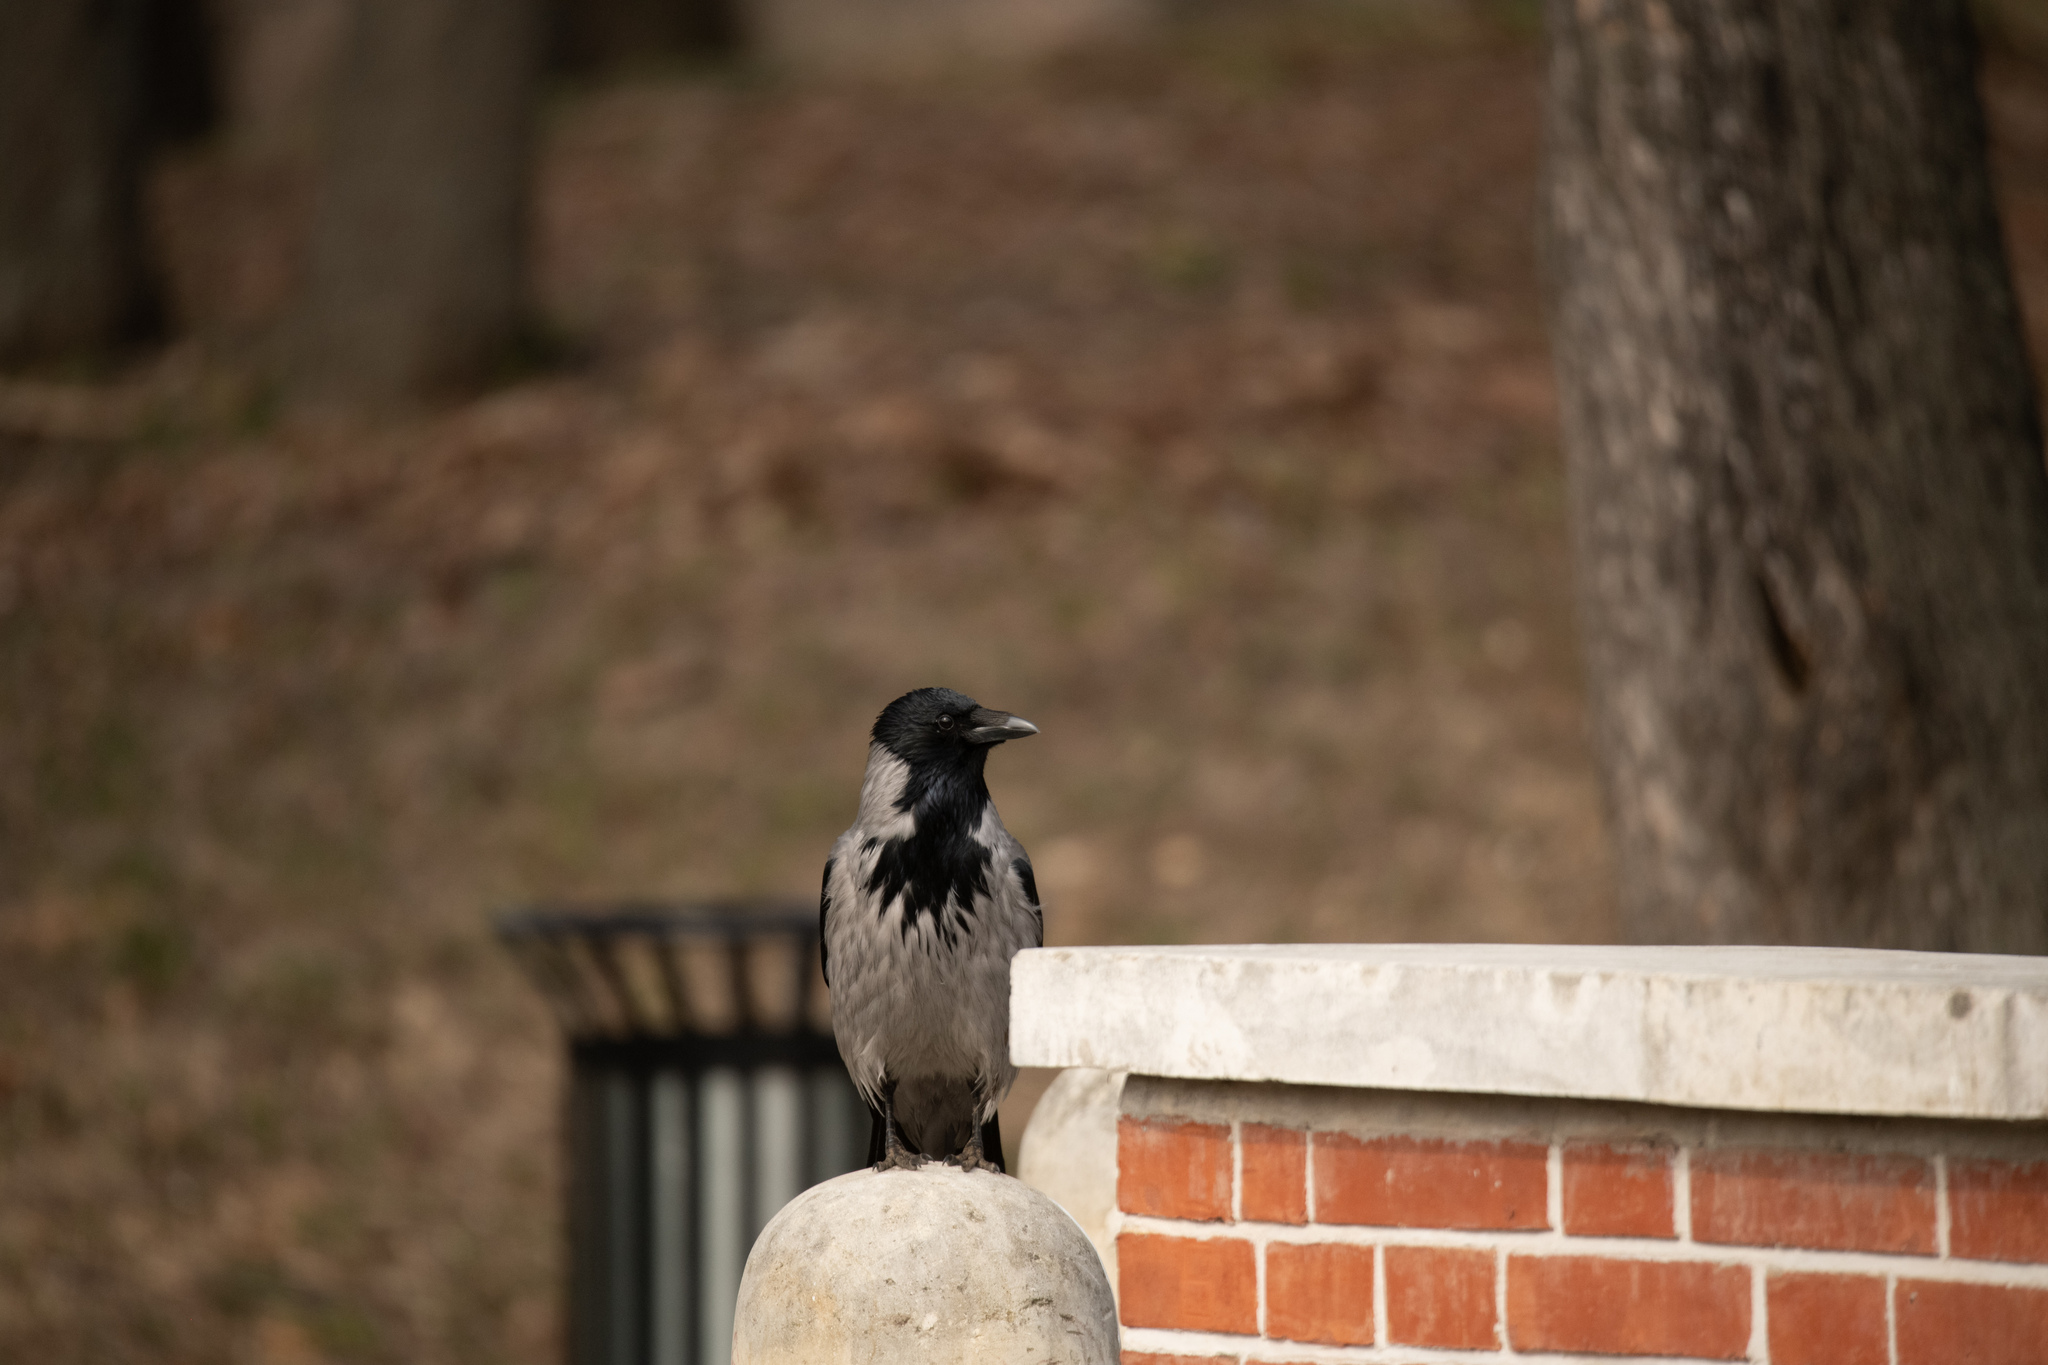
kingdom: Animalia
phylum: Chordata
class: Aves
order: Passeriformes
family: Corvidae
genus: Corvus
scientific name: Corvus cornix
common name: Hooded crow
